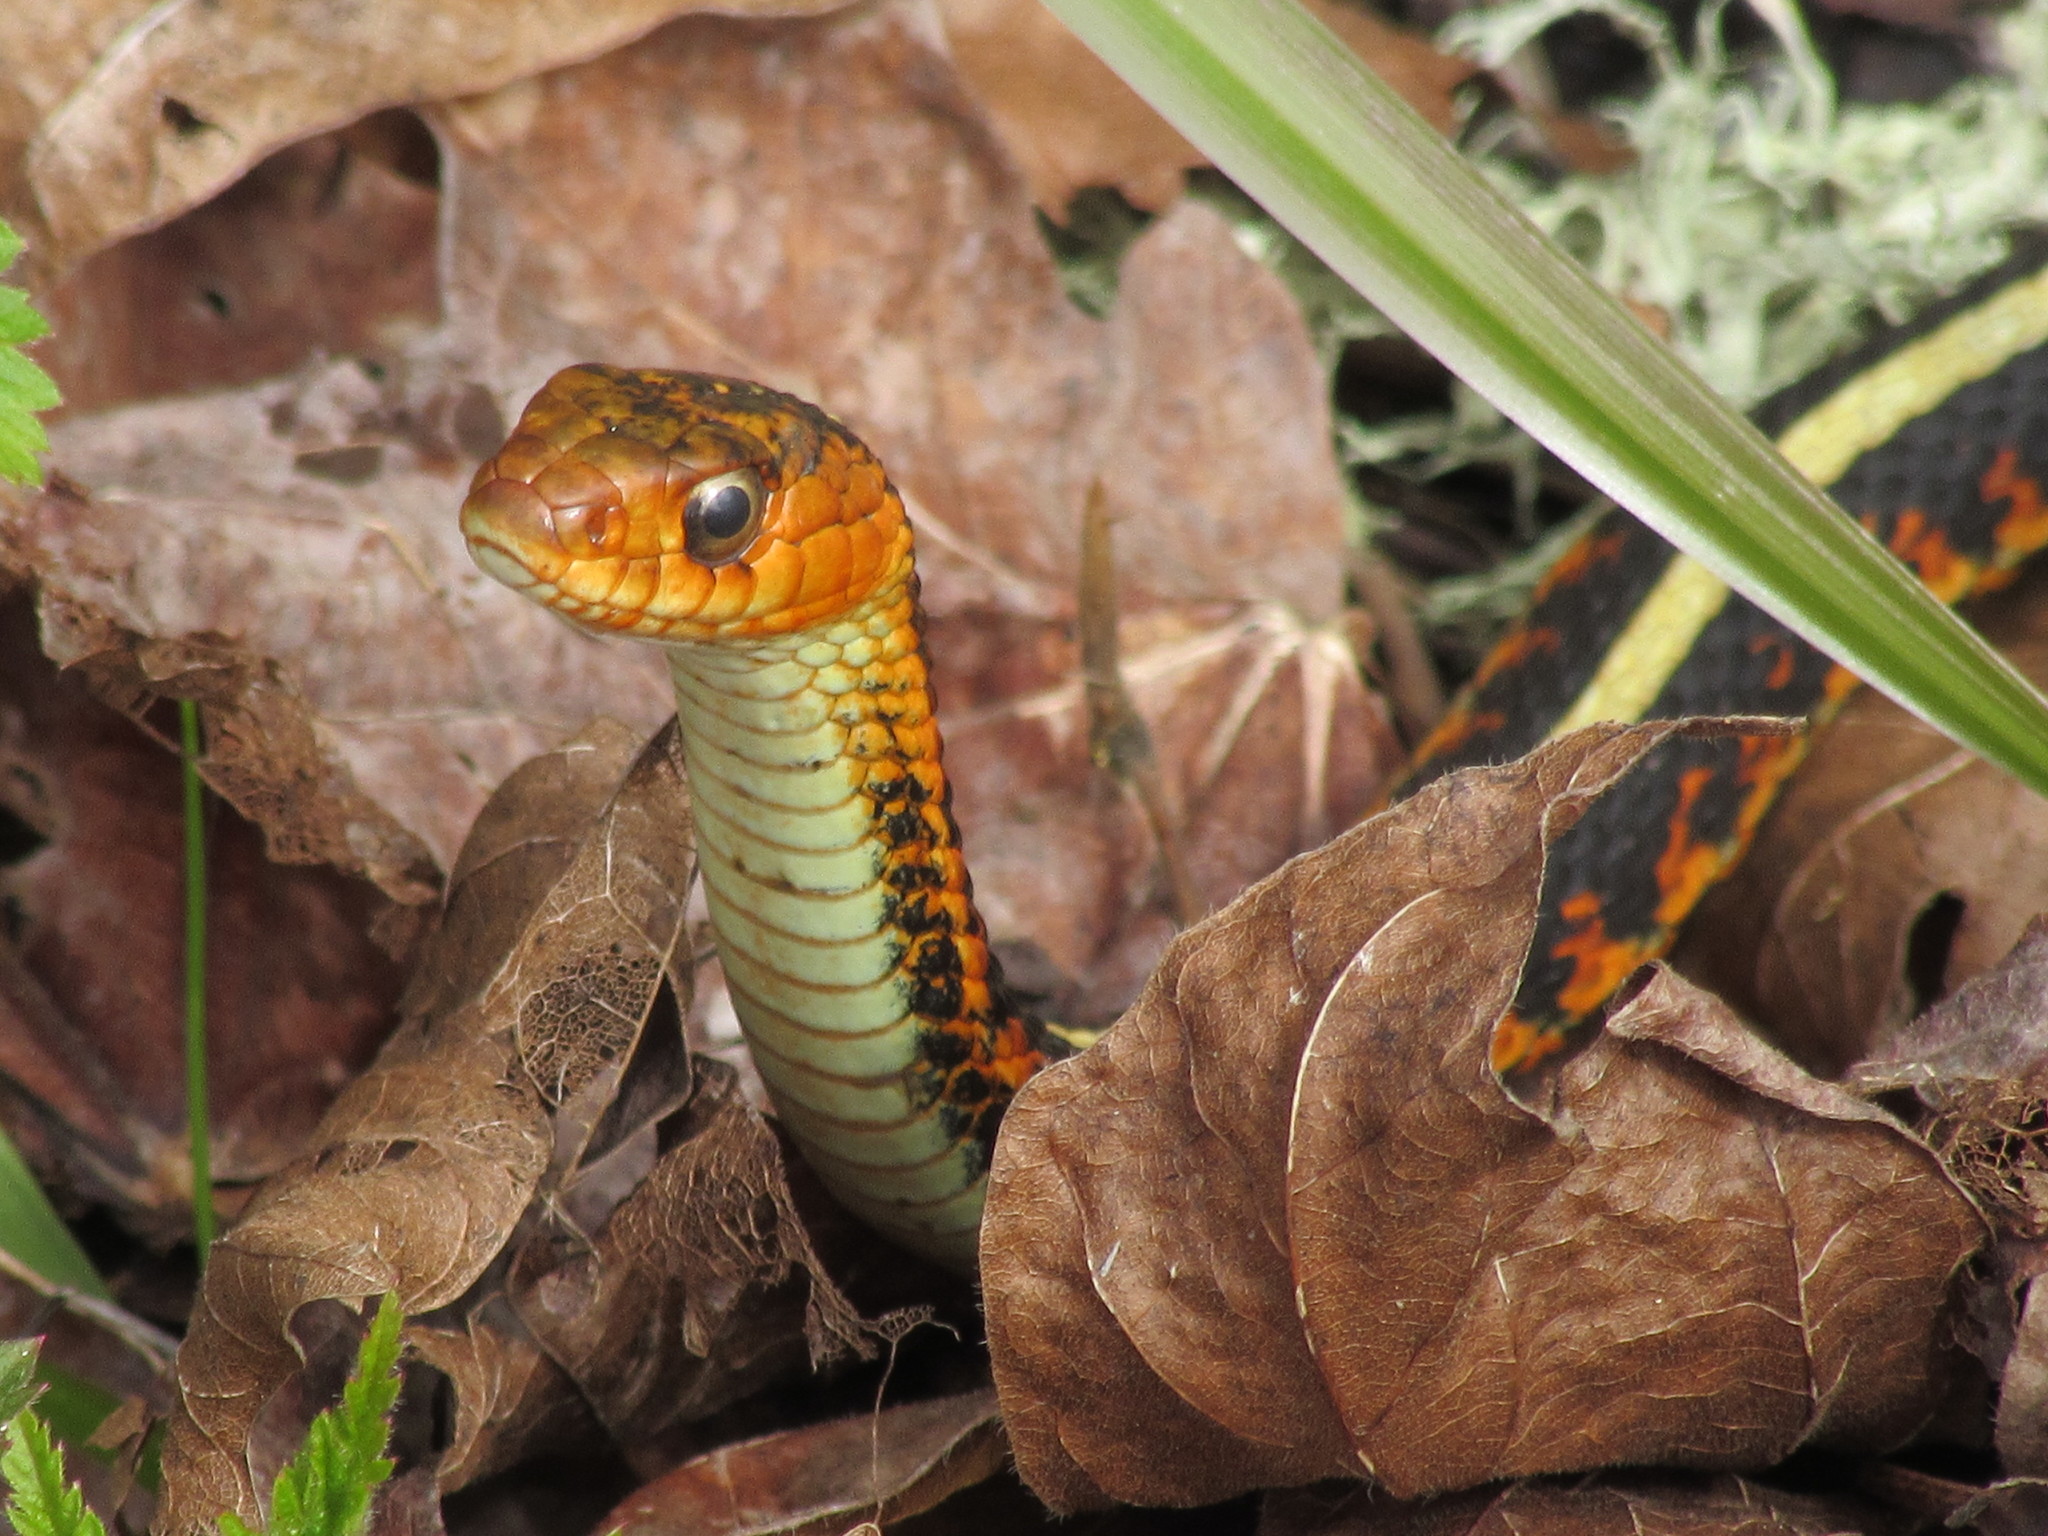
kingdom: Animalia
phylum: Chordata
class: Squamata
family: Colubridae
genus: Thamnophis
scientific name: Thamnophis sirtalis
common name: Common garter snake
